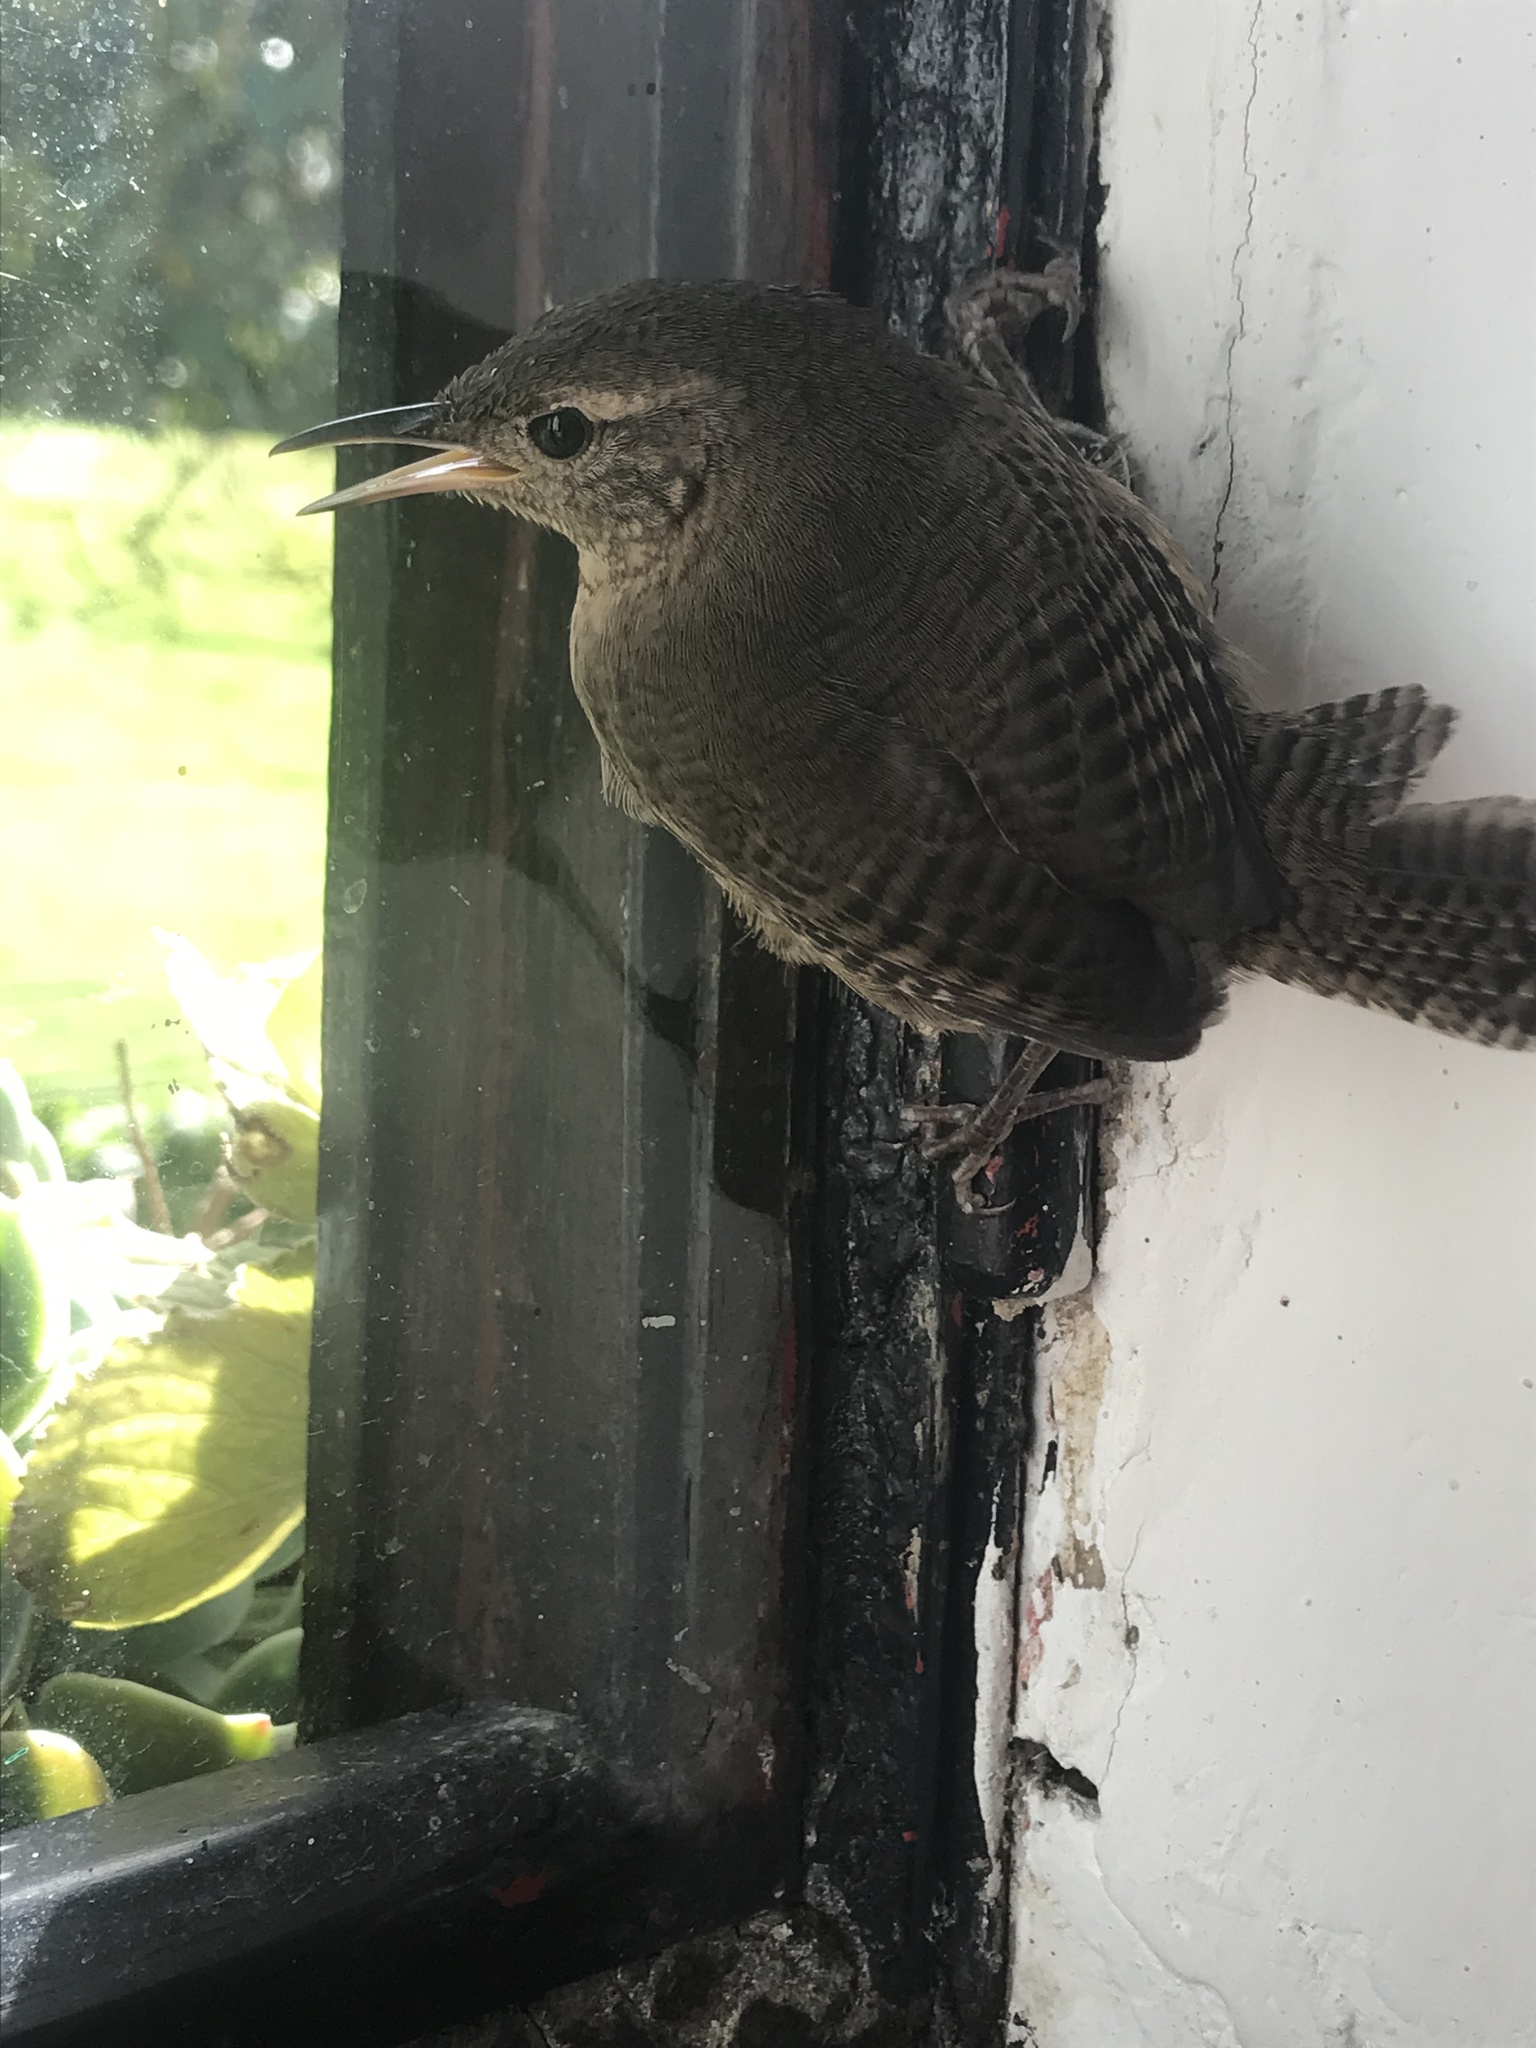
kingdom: Animalia
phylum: Chordata
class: Aves
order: Passeriformes
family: Troglodytidae
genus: Troglodytes
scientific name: Troglodytes aedon
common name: House wren
